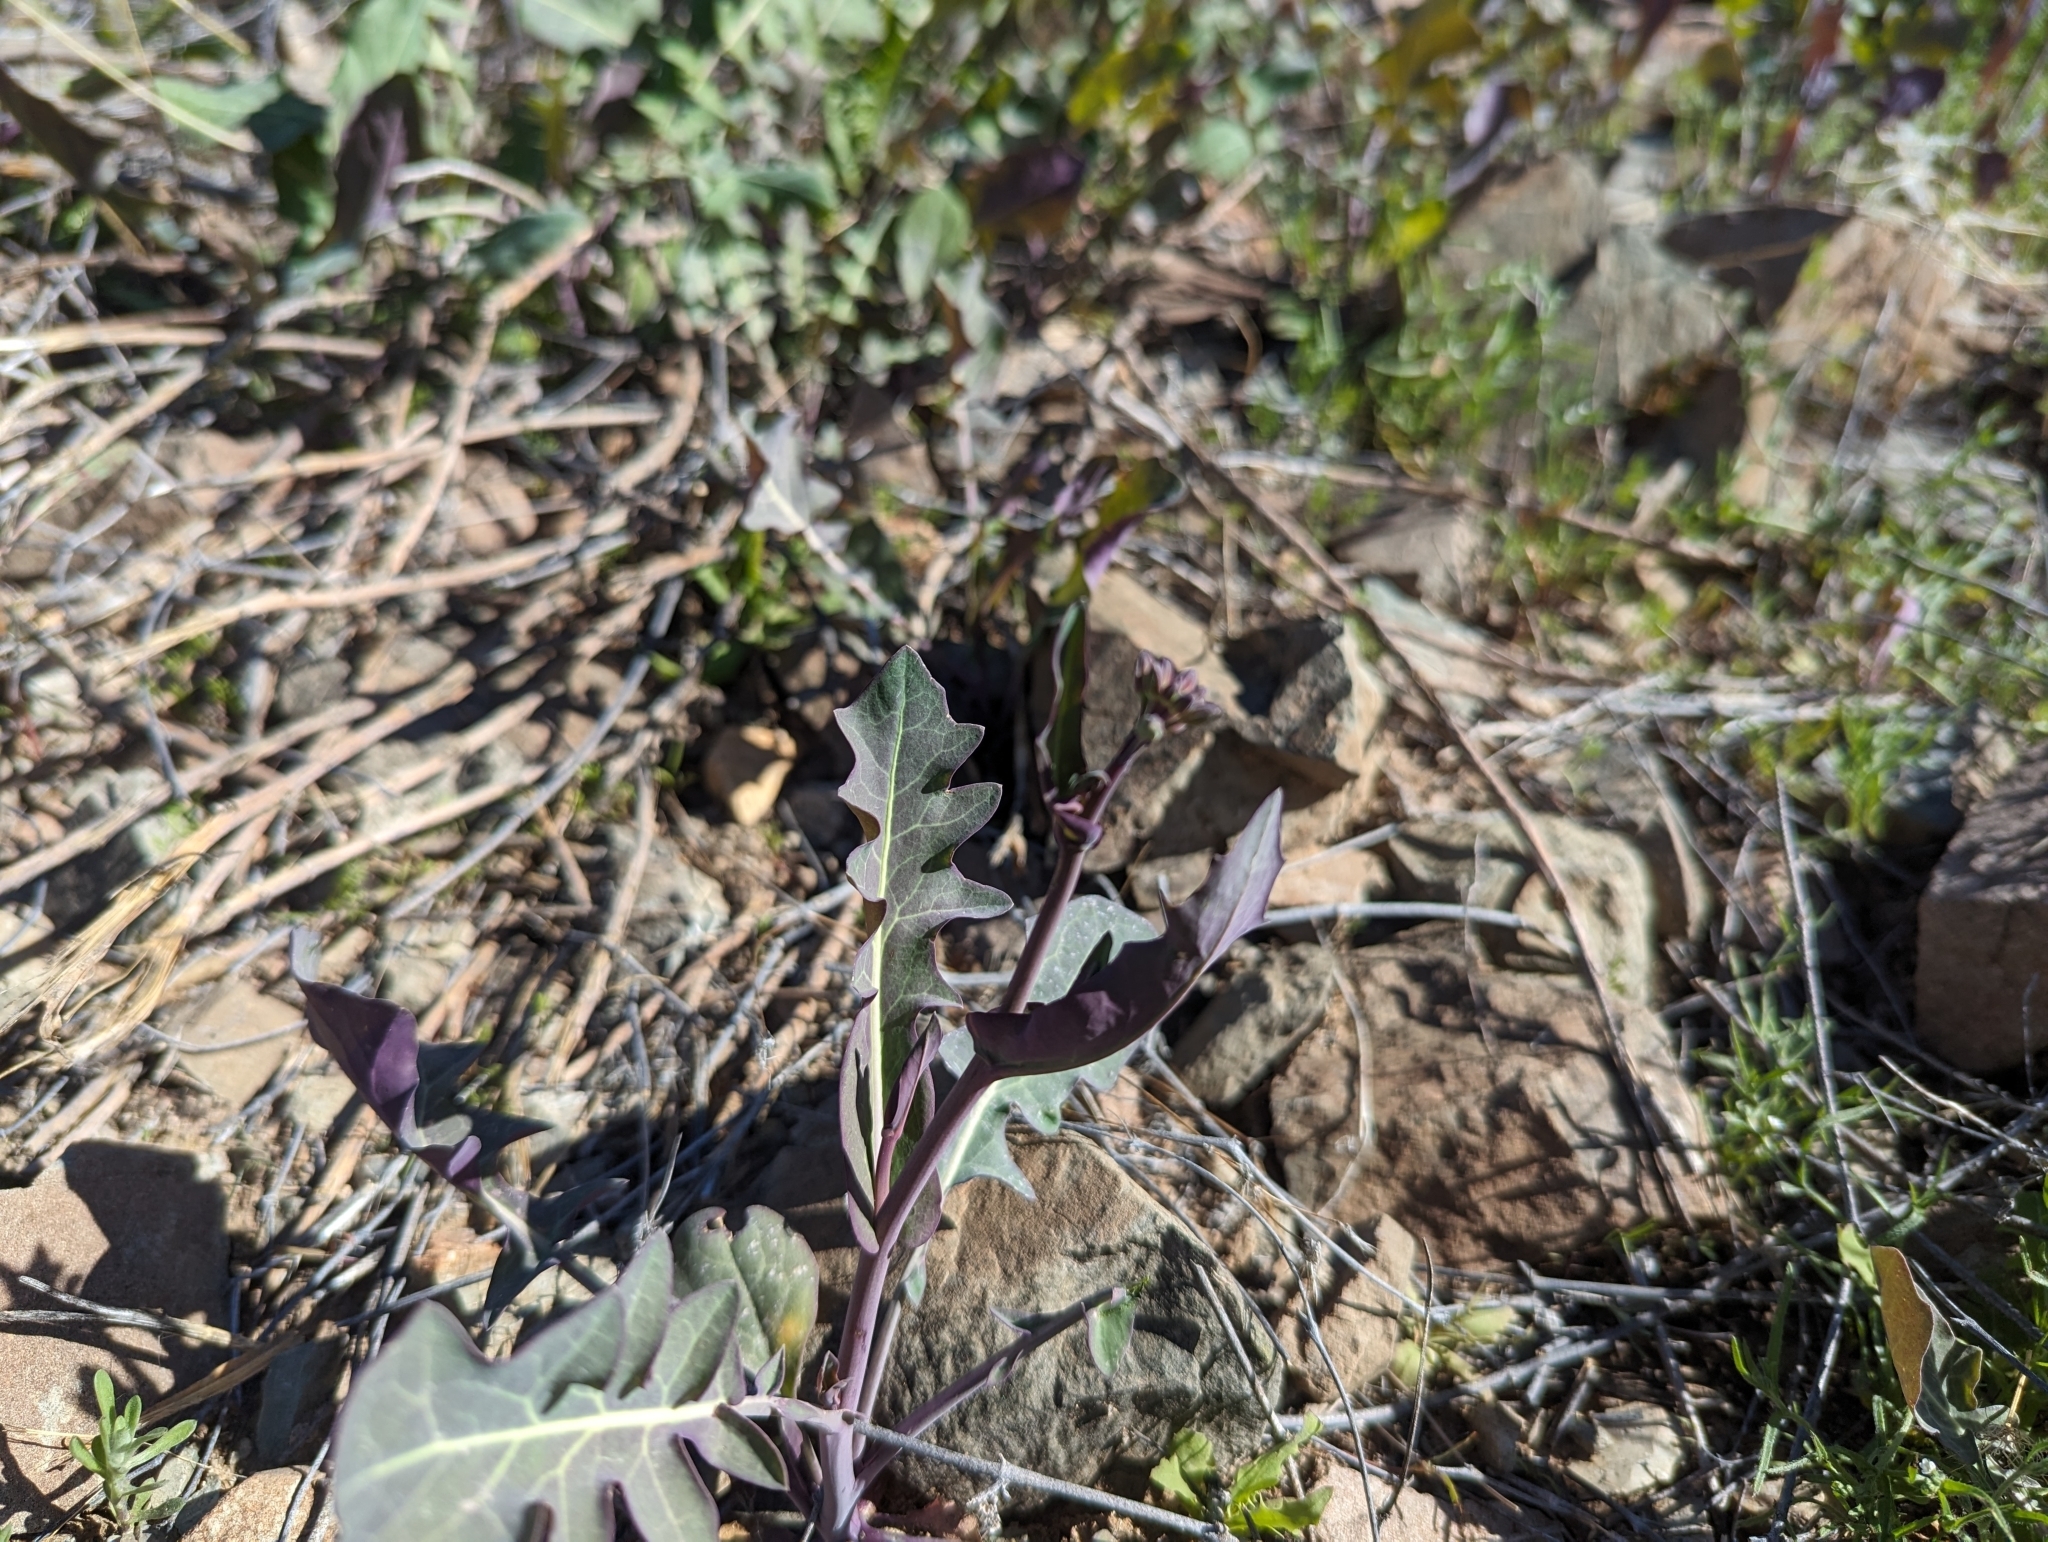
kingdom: Plantae
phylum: Tracheophyta
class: Magnoliopsida
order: Brassicales
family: Brassicaceae
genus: Streptanthus
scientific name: Streptanthus carinatus
